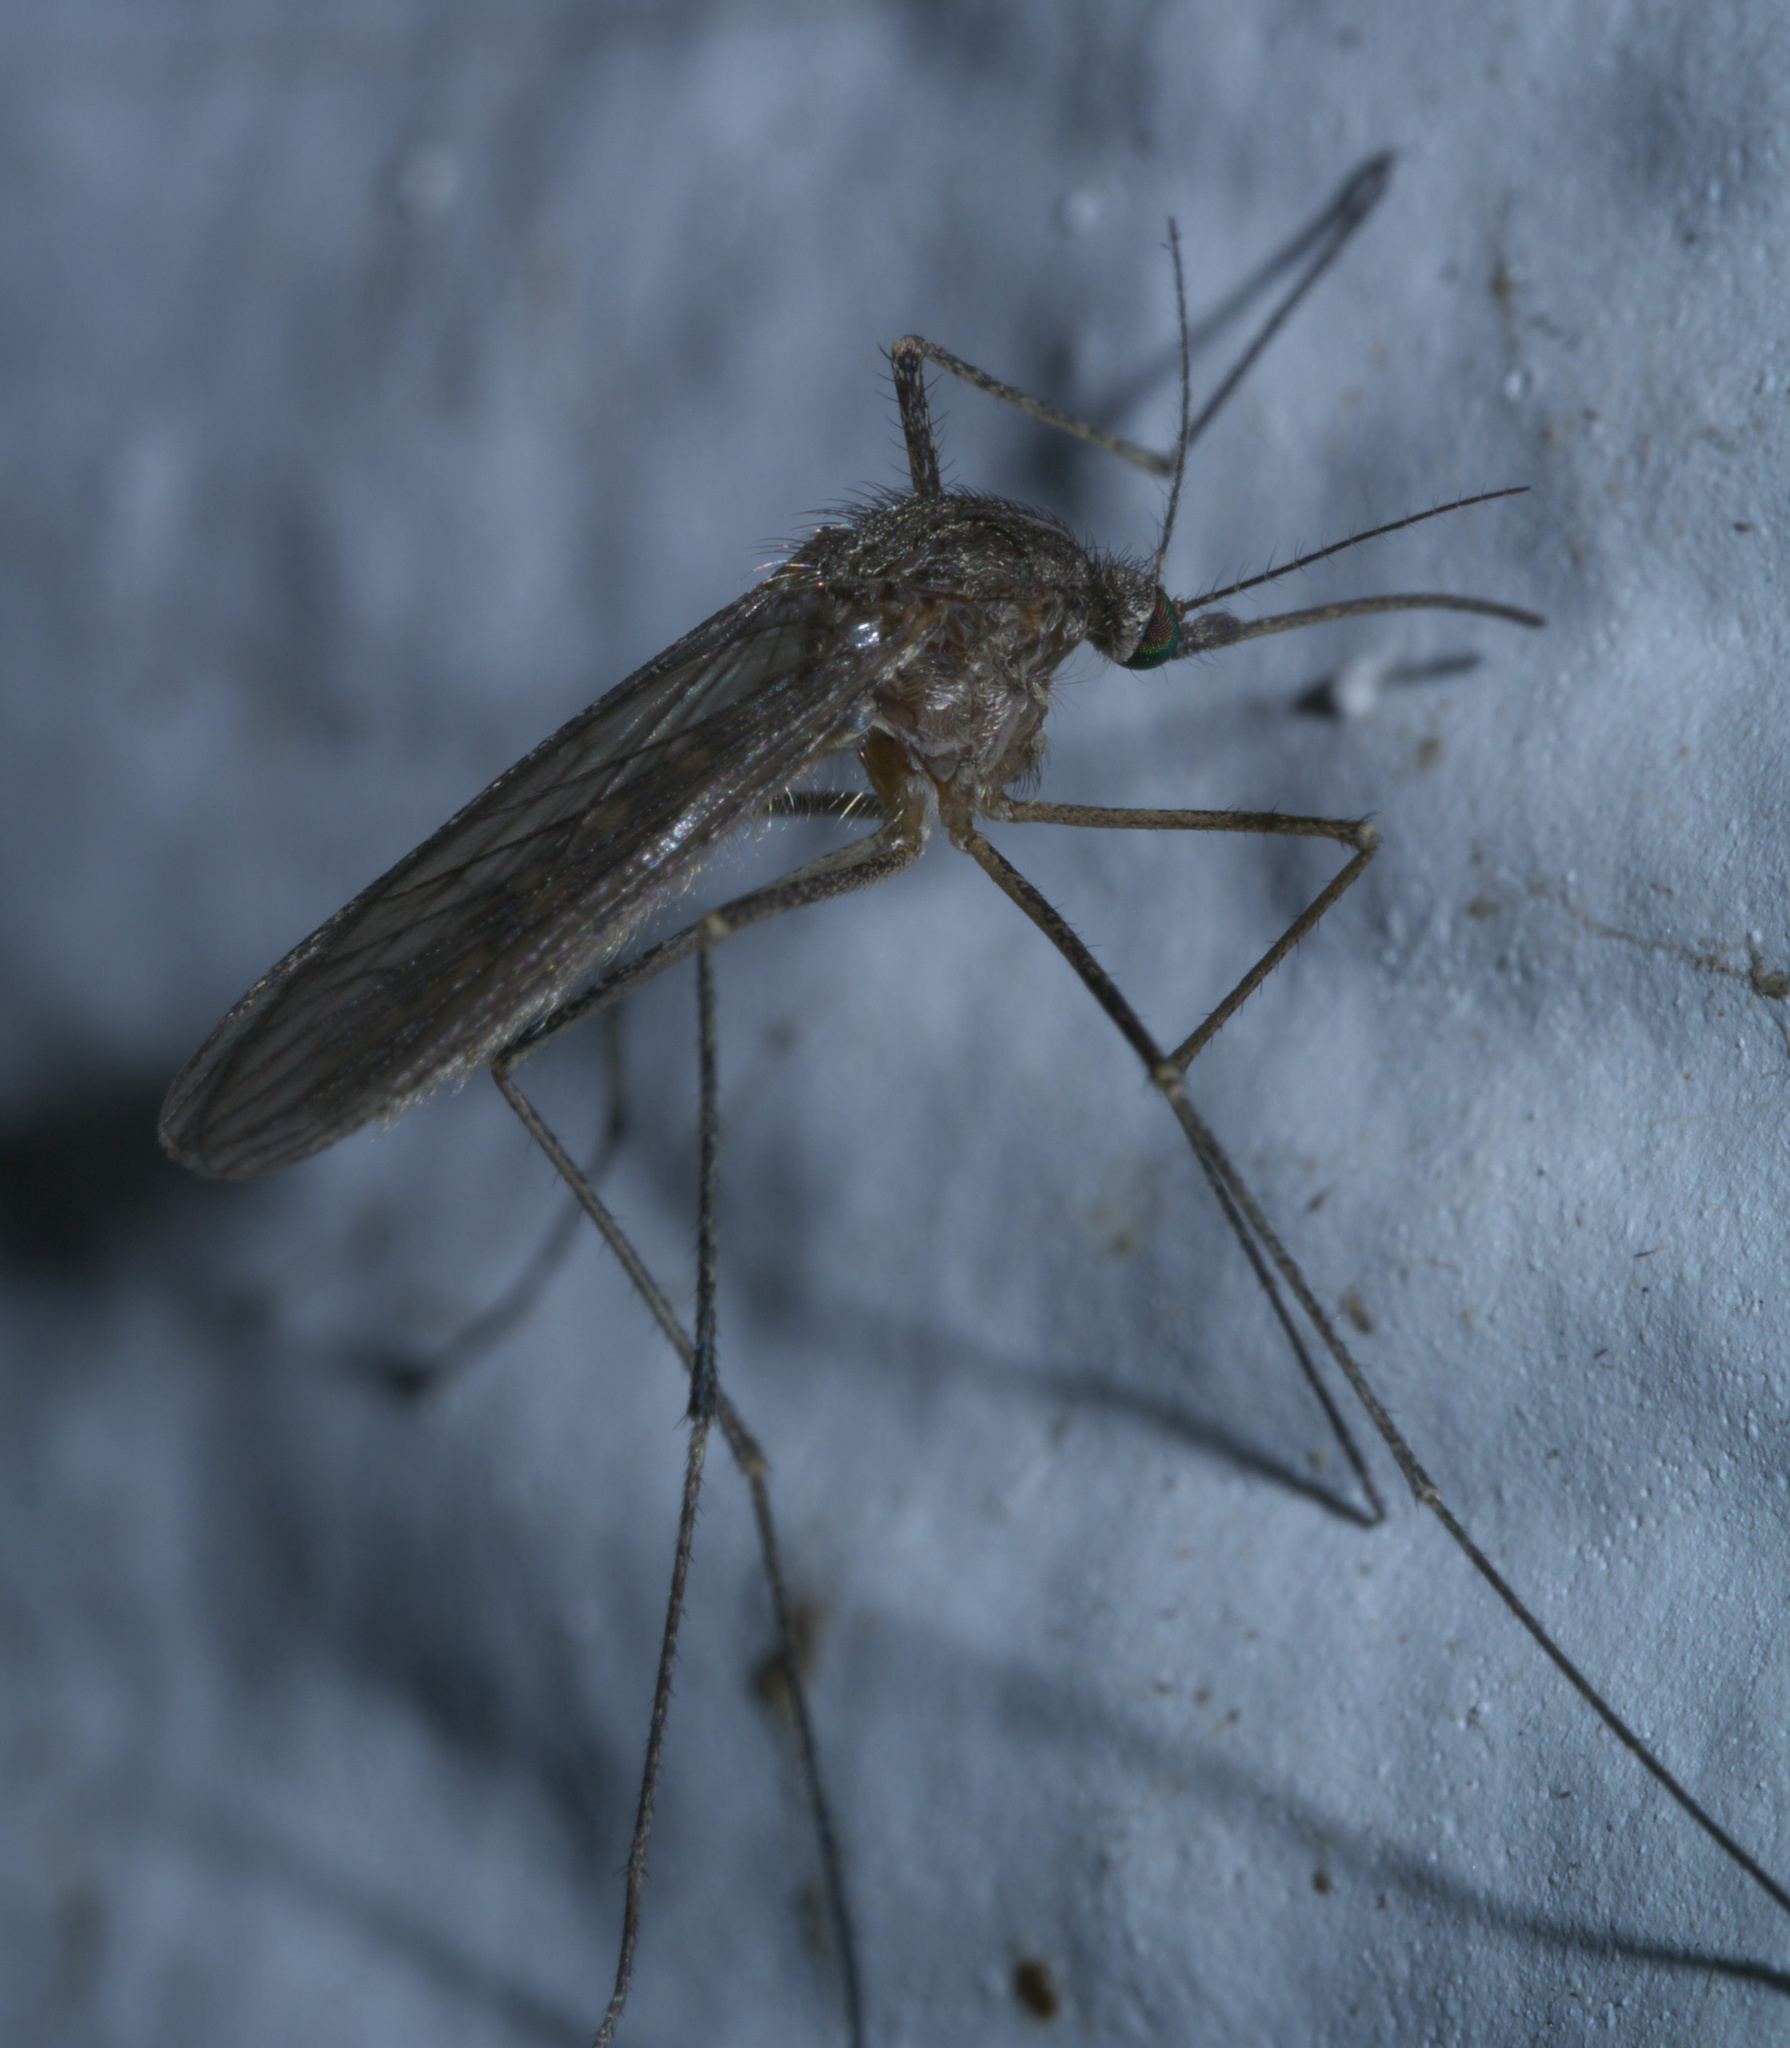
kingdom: Animalia
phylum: Arthropoda
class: Insecta
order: Diptera
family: Culicidae
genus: Culiseta
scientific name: Culiseta inornata
